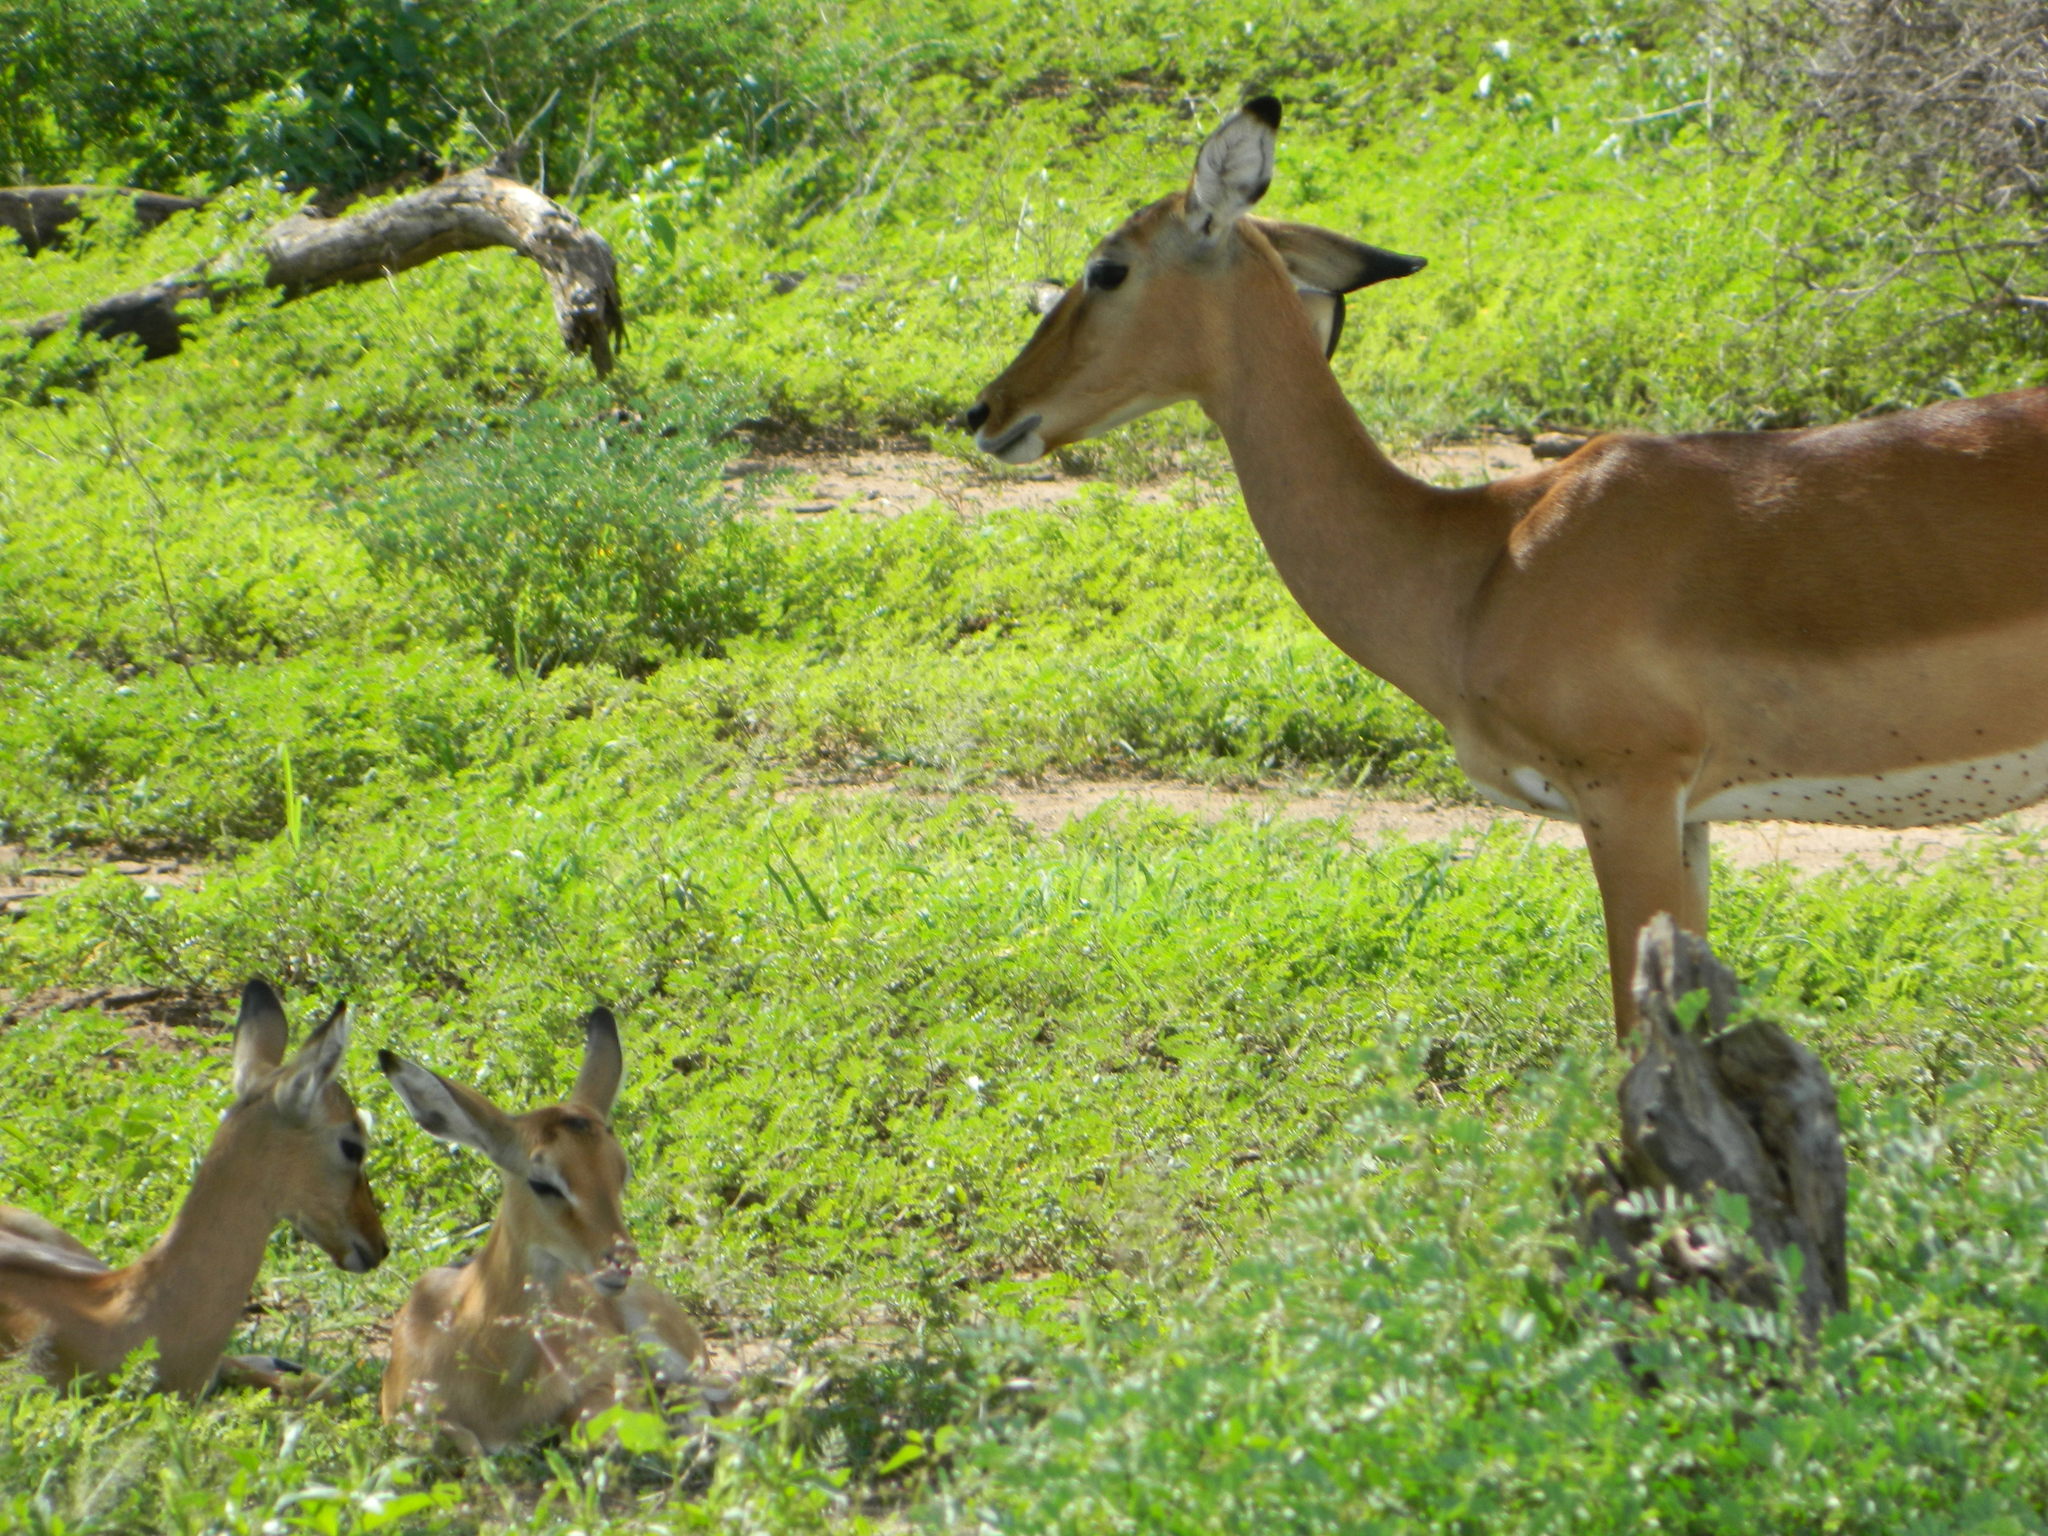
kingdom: Animalia
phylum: Chordata
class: Mammalia
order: Artiodactyla
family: Bovidae
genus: Aepyceros
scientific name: Aepyceros melampus
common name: Impala
